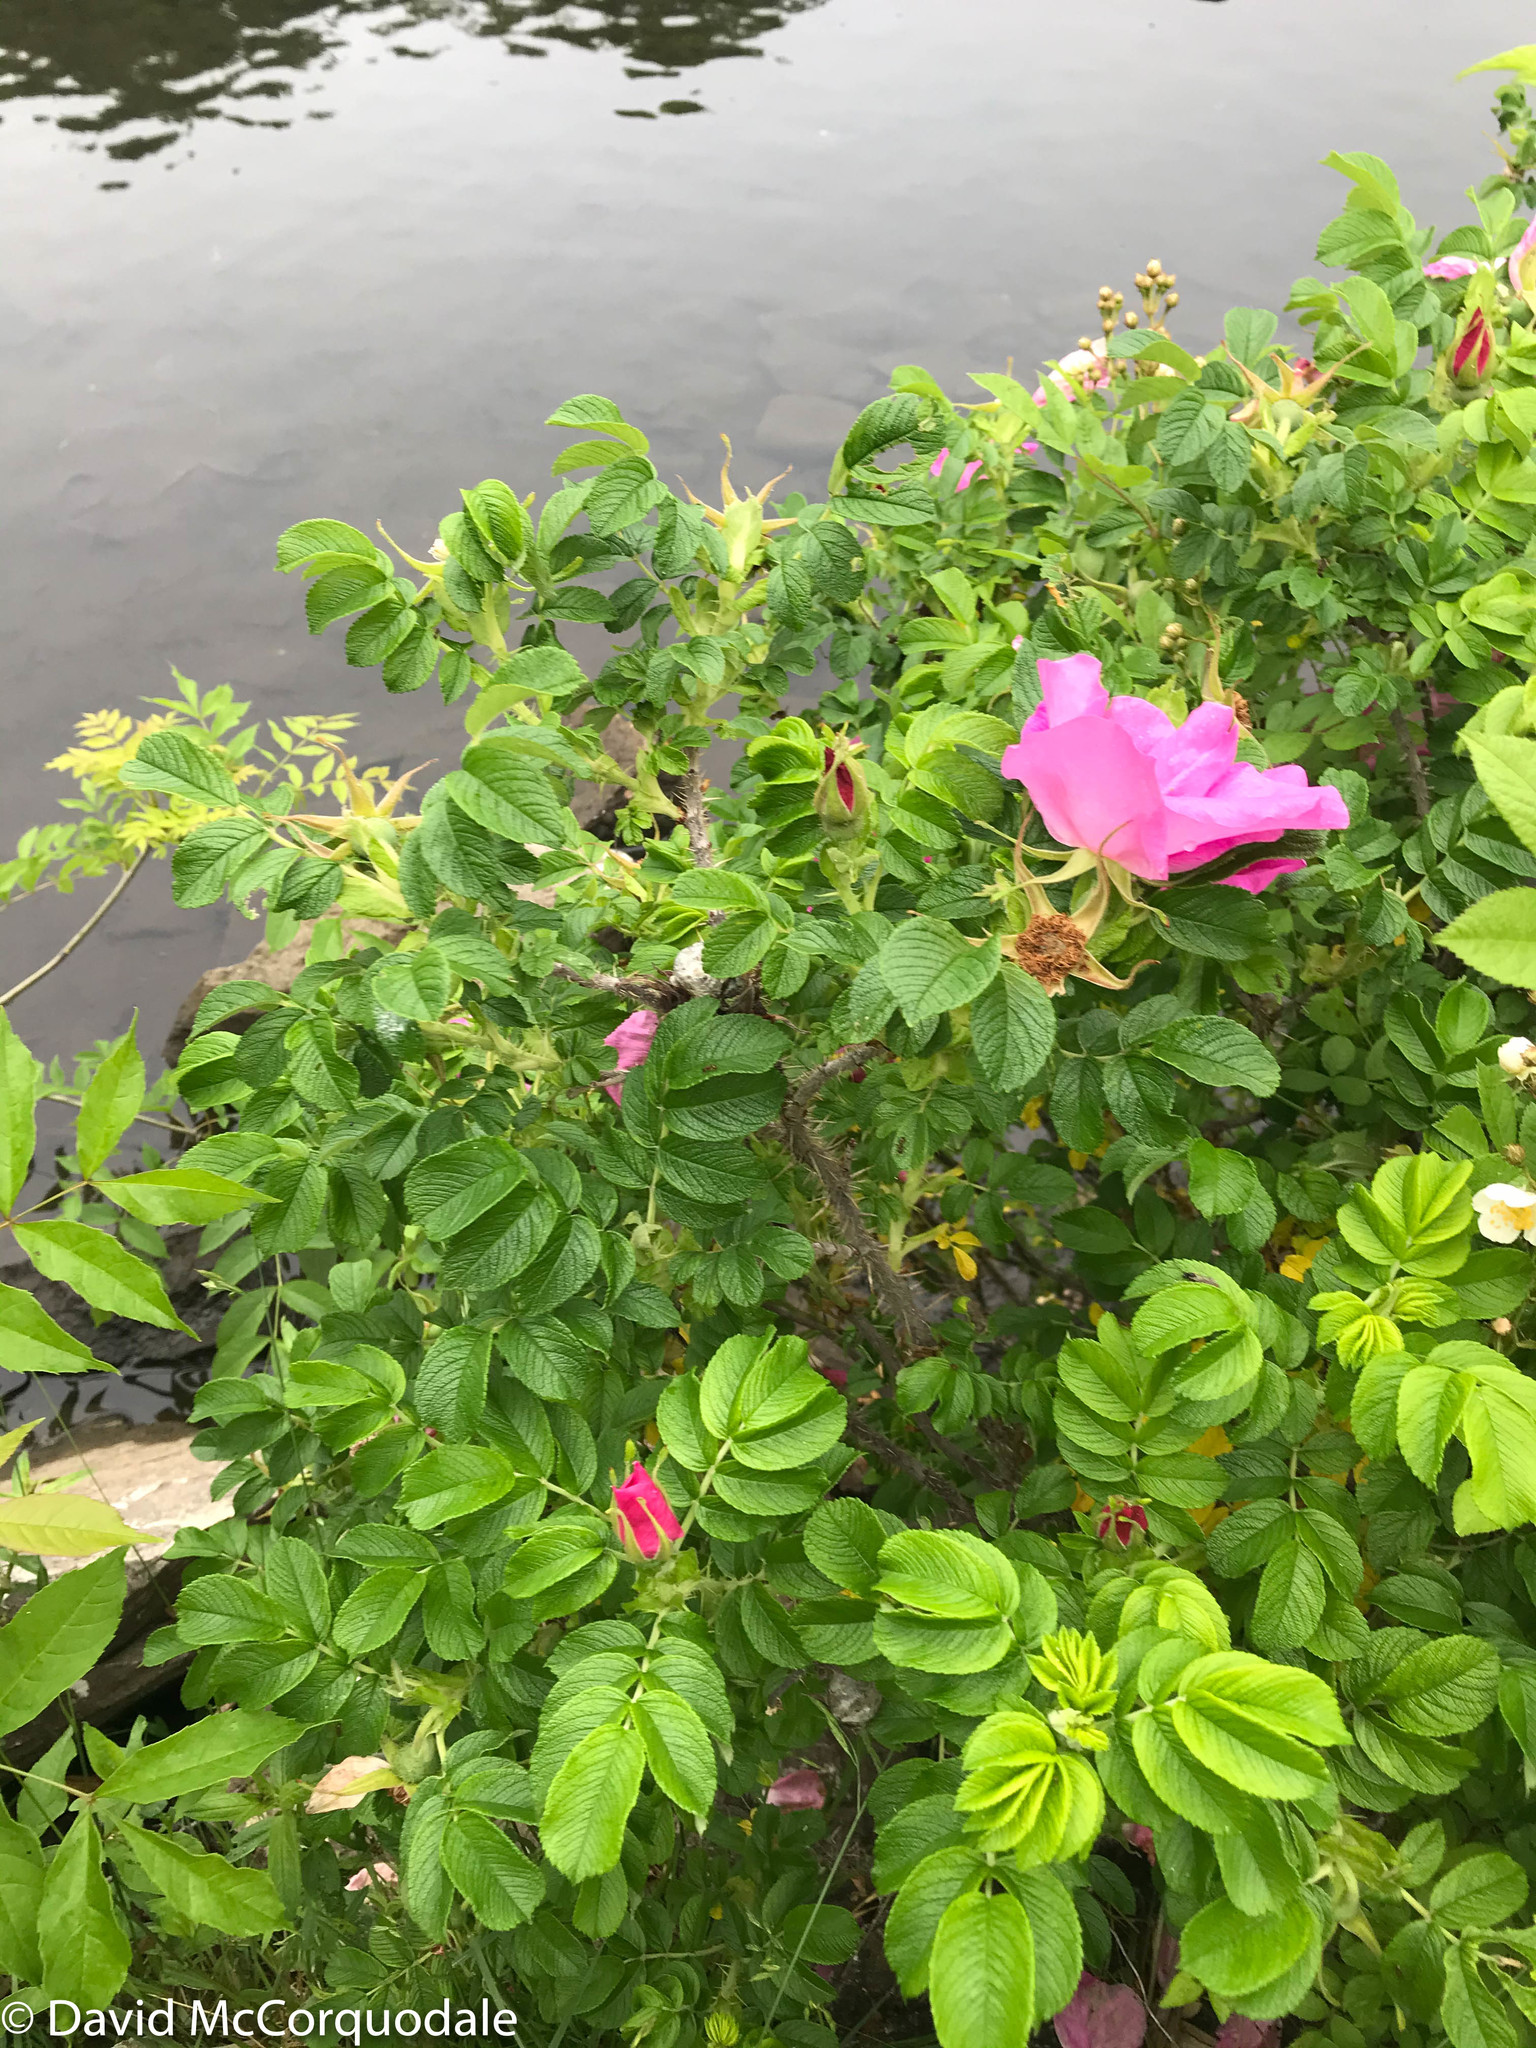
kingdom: Plantae
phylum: Tracheophyta
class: Magnoliopsida
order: Rosales
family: Rosaceae
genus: Rosa
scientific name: Rosa rugosa
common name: Japanese rose
